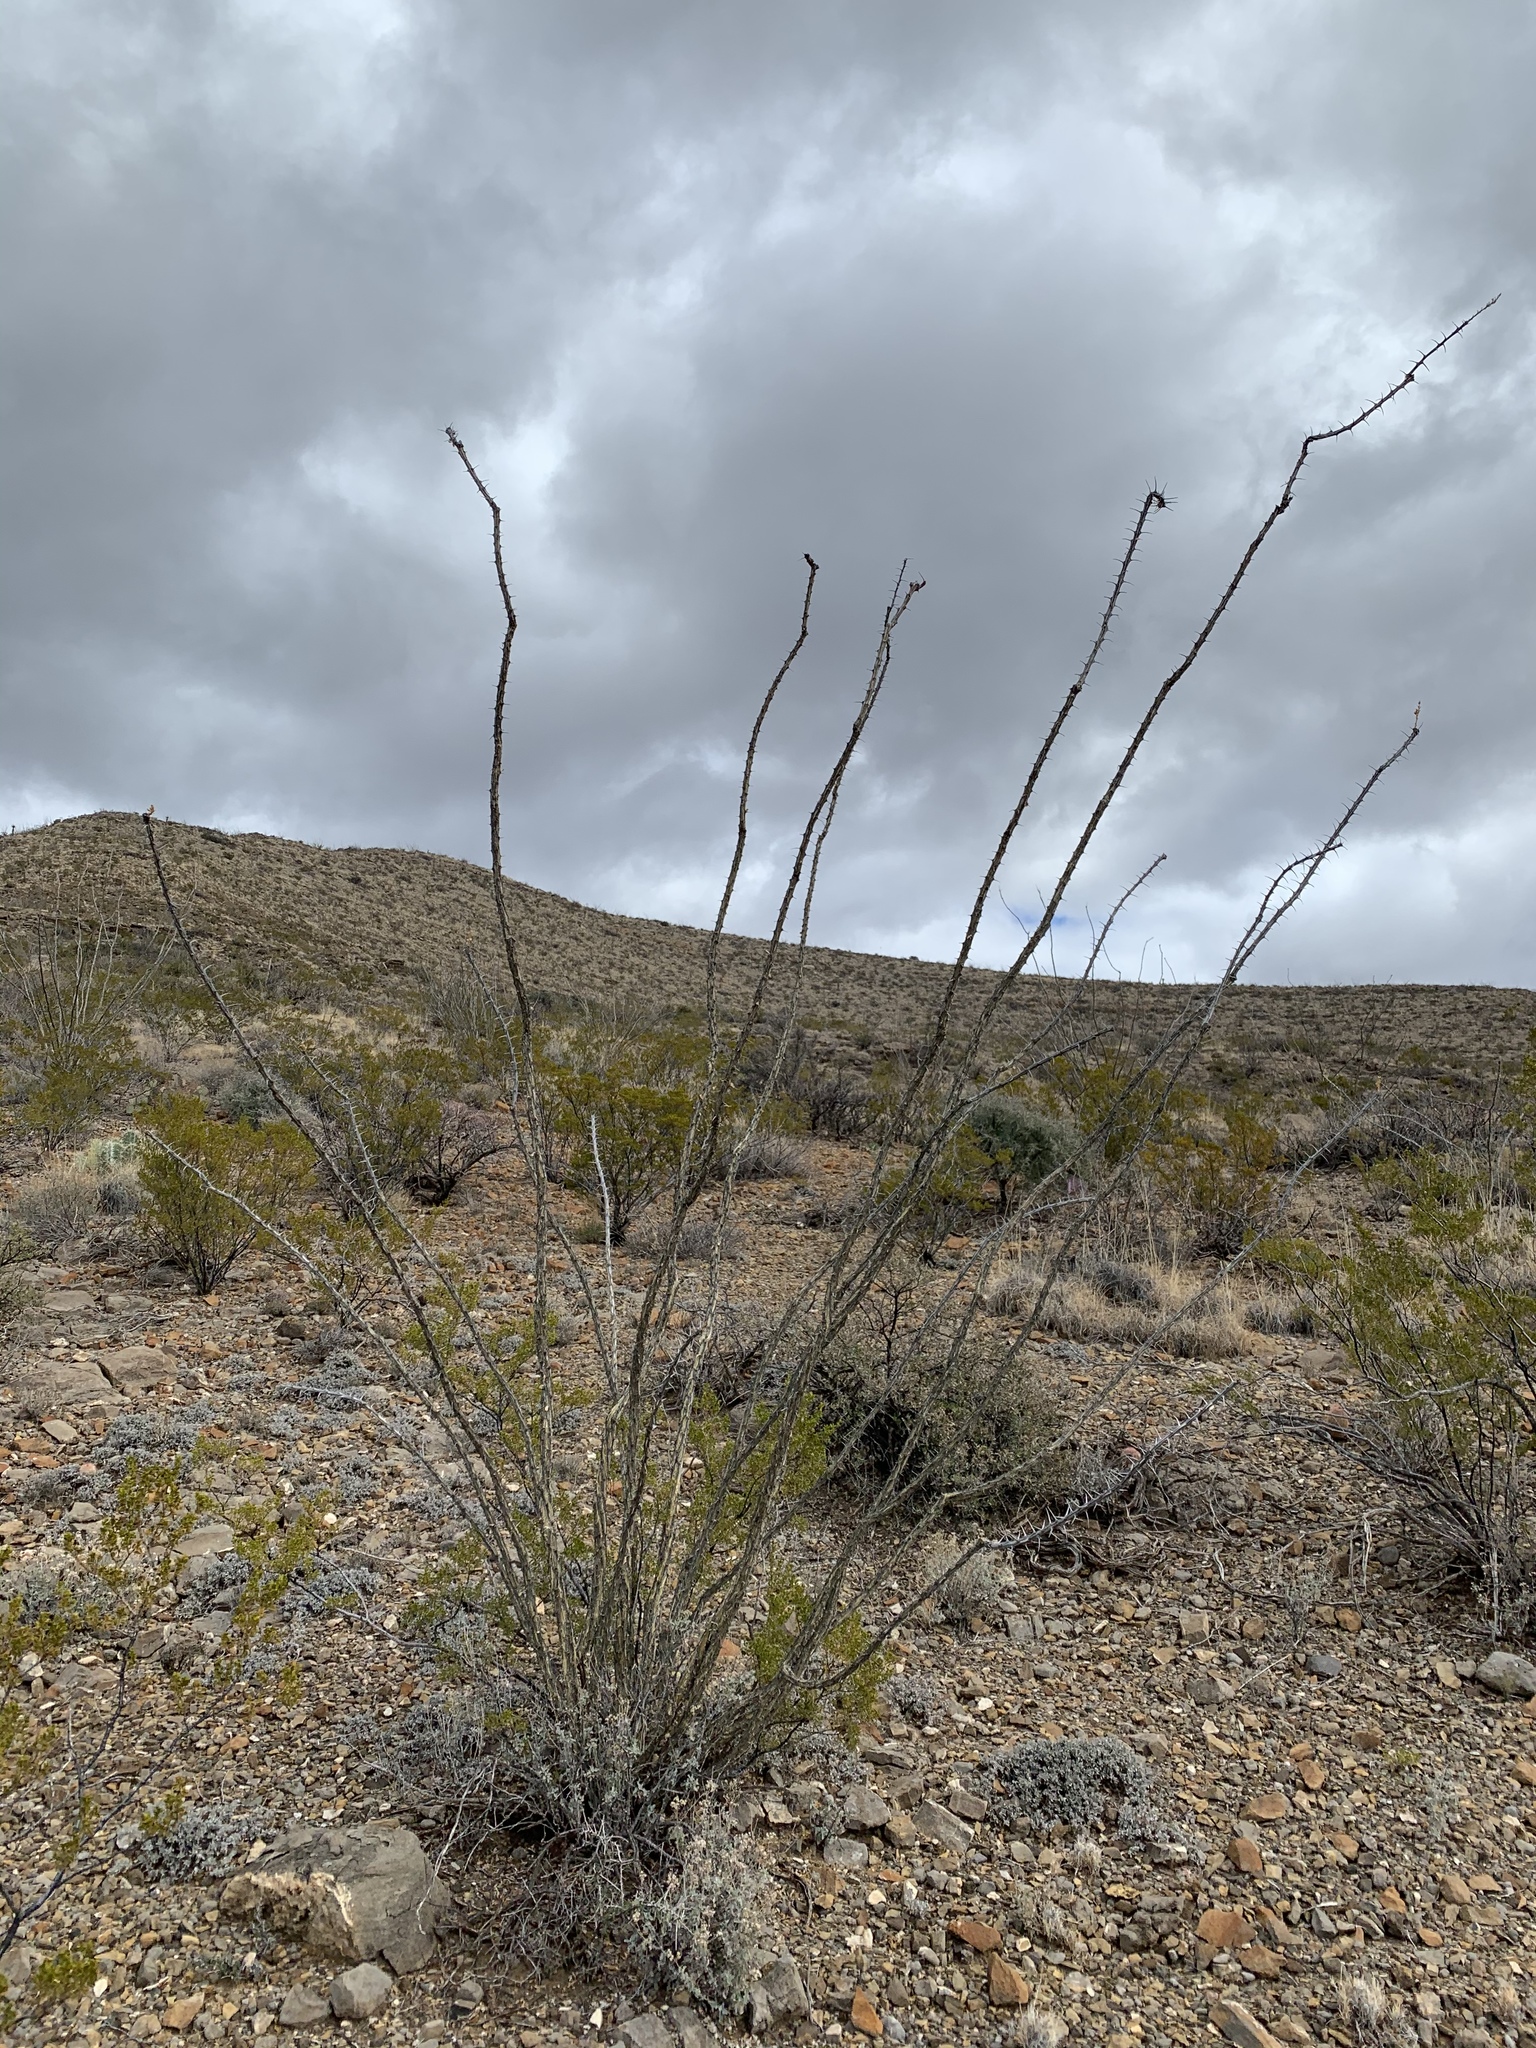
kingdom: Plantae
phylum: Tracheophyta
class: Magnoliopsida
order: Ericales
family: Fouquieriaceae
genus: Fouquieria
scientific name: Fouquieria splendens
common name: Vine-cactus
